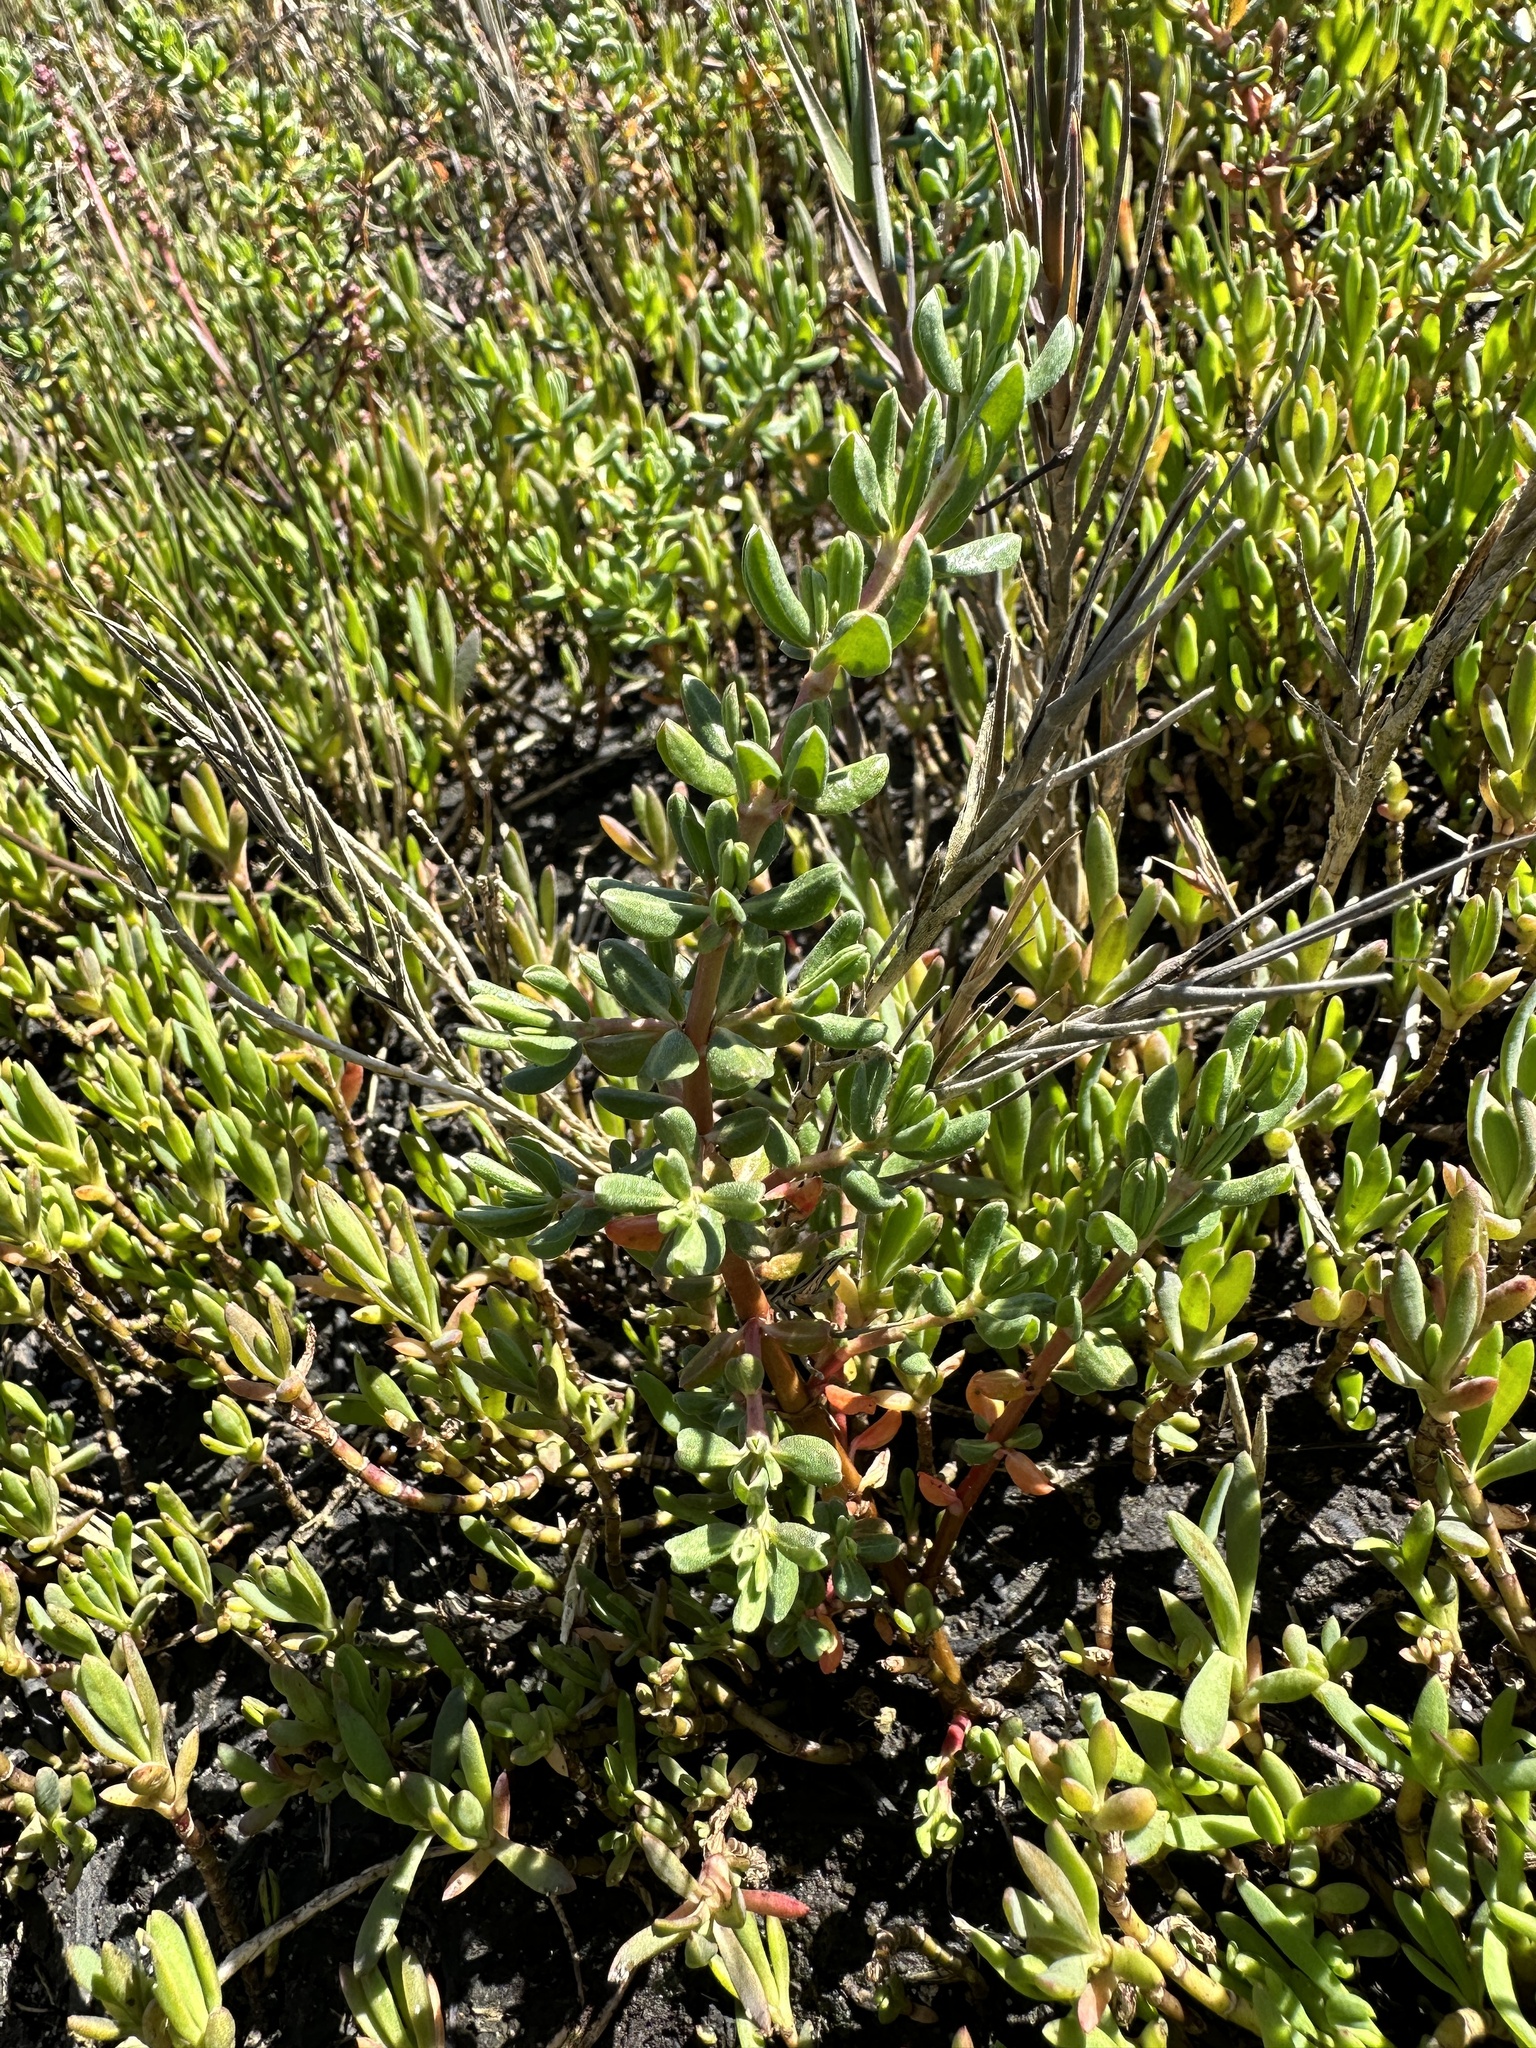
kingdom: Plantae
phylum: Tracheophyta
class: Magnoliopsida
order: Caryophyllales
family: Frankeniaceae
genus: Frankenia
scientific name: Frankenia salina
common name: Alkali seaheath
